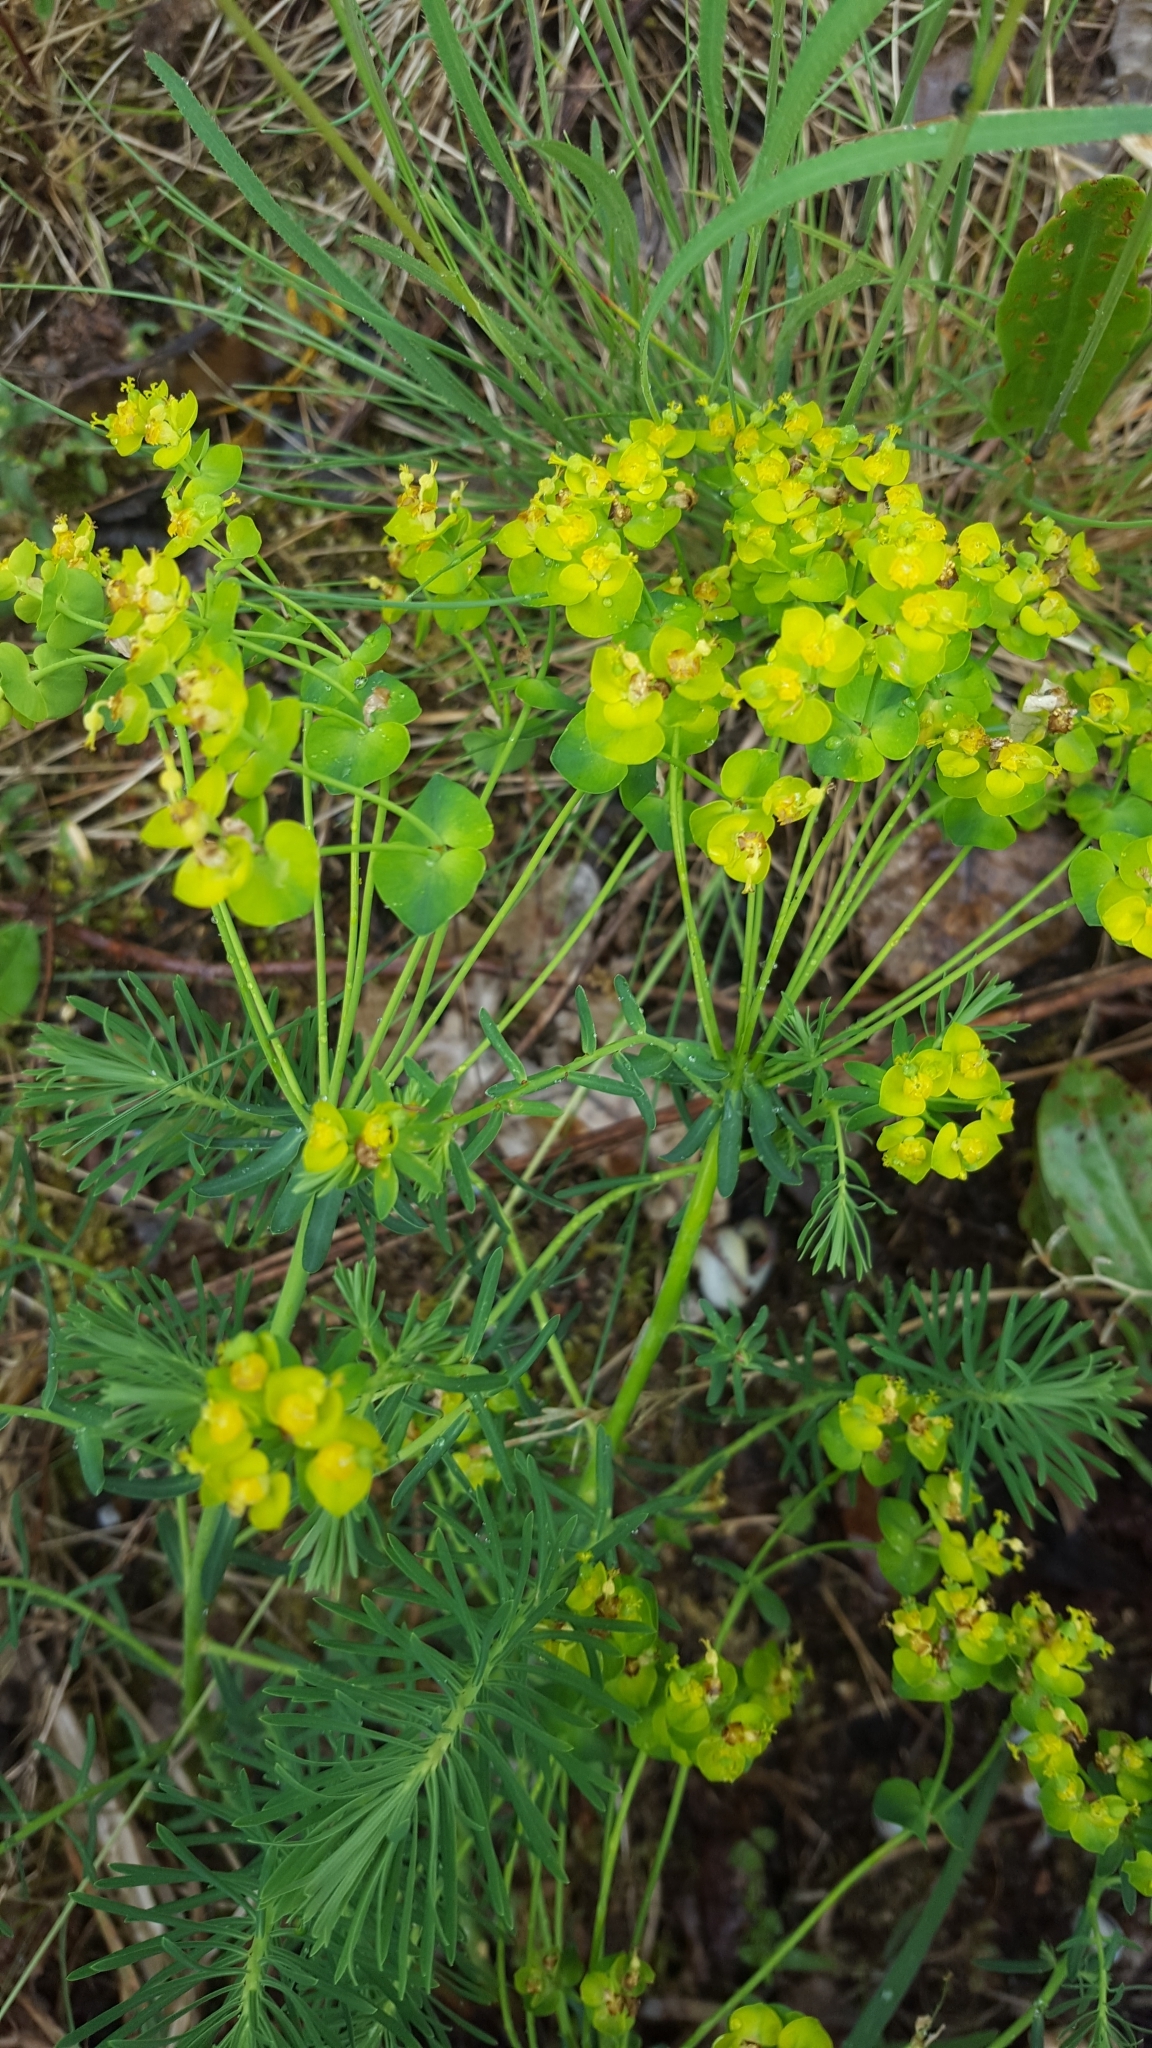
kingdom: Plantae
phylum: Tracheophyta
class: Magnoliopsida
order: Malpighiales
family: Euphorbiaceae
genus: Euphorbia
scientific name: Euphorbia cyparissias
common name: Cypress spurge
